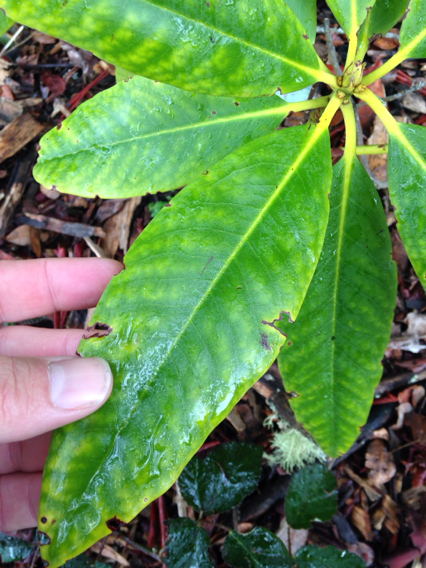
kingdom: Plantae
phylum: Tracheophyta
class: Magnoliopsida
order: Ericales
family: Ericaceae
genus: Rhododendron
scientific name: Rhododendron macrophyllum
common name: California rose bay
